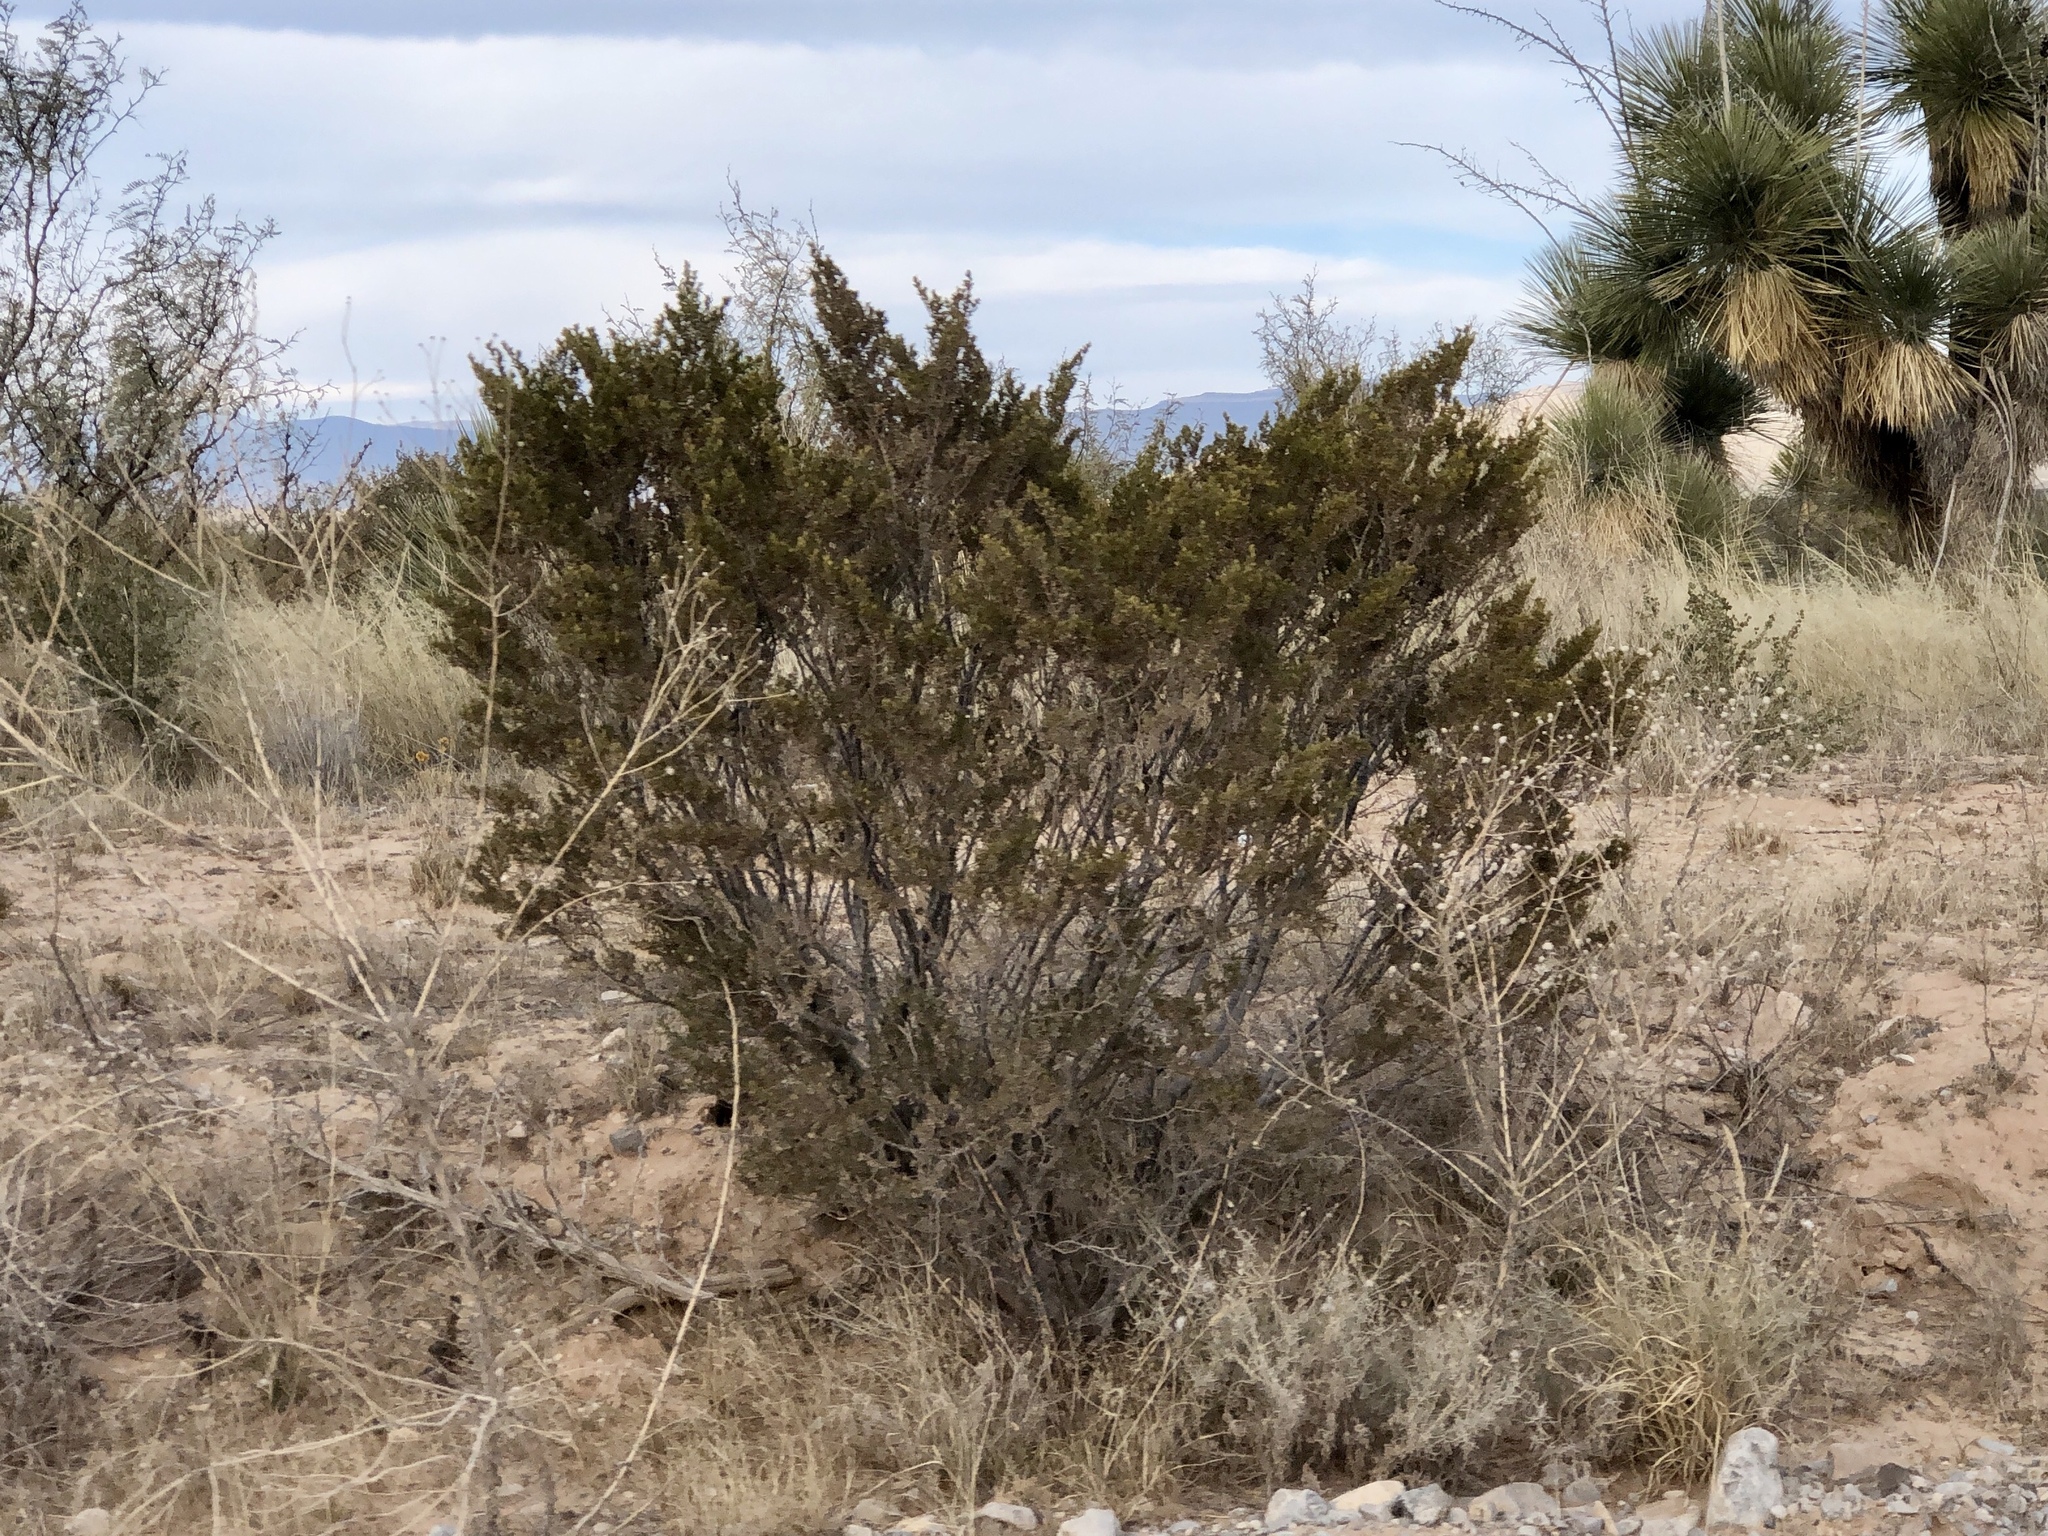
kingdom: Plantae
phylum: Tracheophyta
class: Magnoliopsida
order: Zygophyllales
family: Zygophyllaceae
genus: Larrea
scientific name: Larrea tridentata
